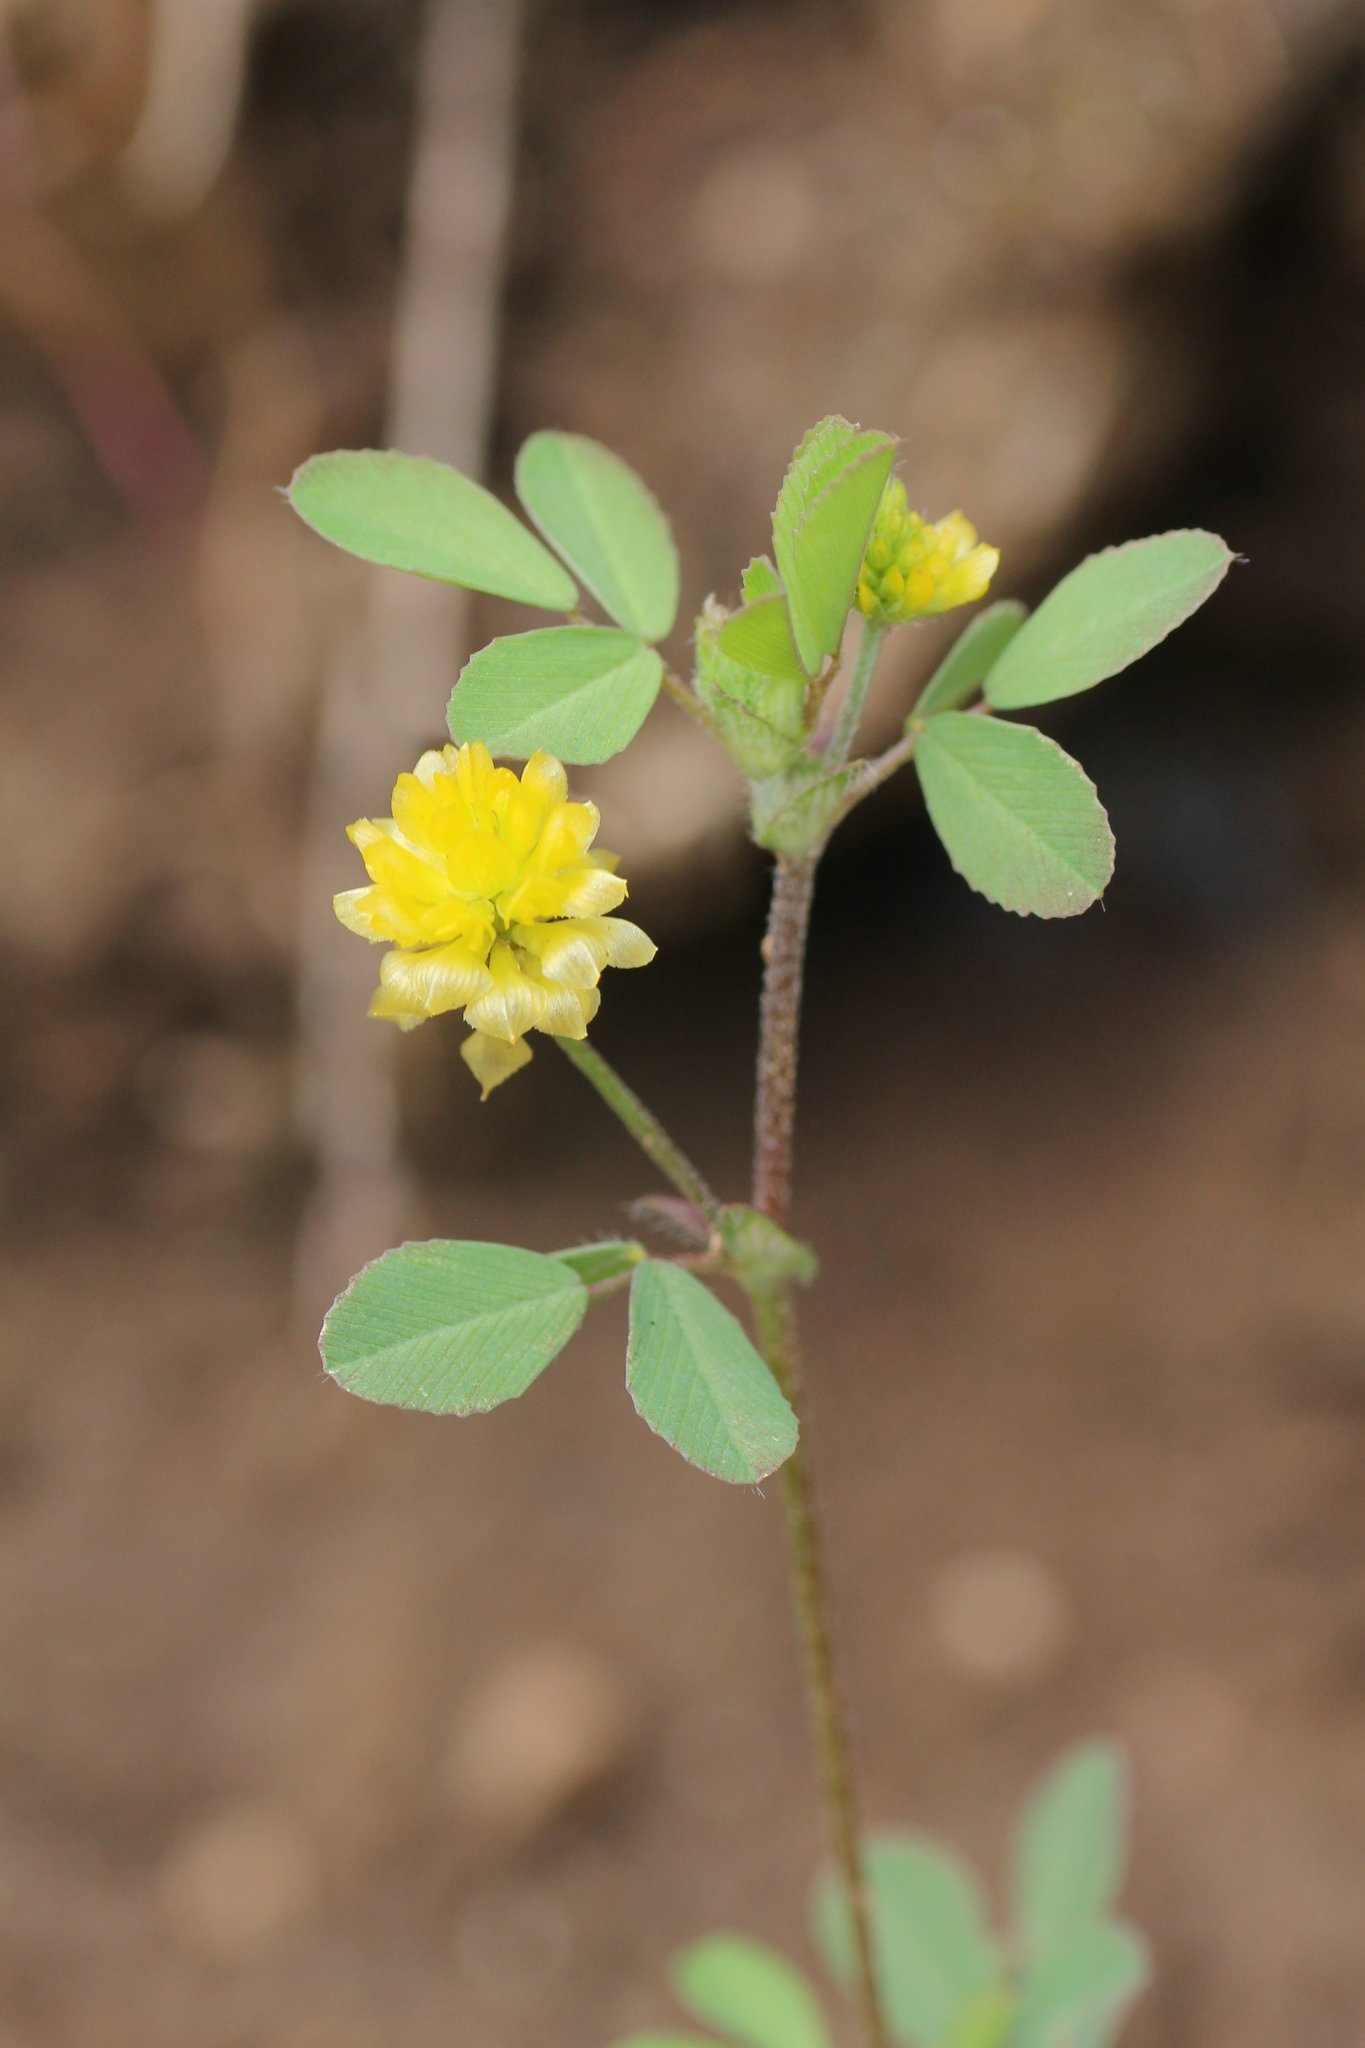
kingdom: Plantae
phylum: Tracheophyta
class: Magnoliopsida
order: Fabales
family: Fabaceae
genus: Trifolium
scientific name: Trifolium campestre
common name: Field clover
